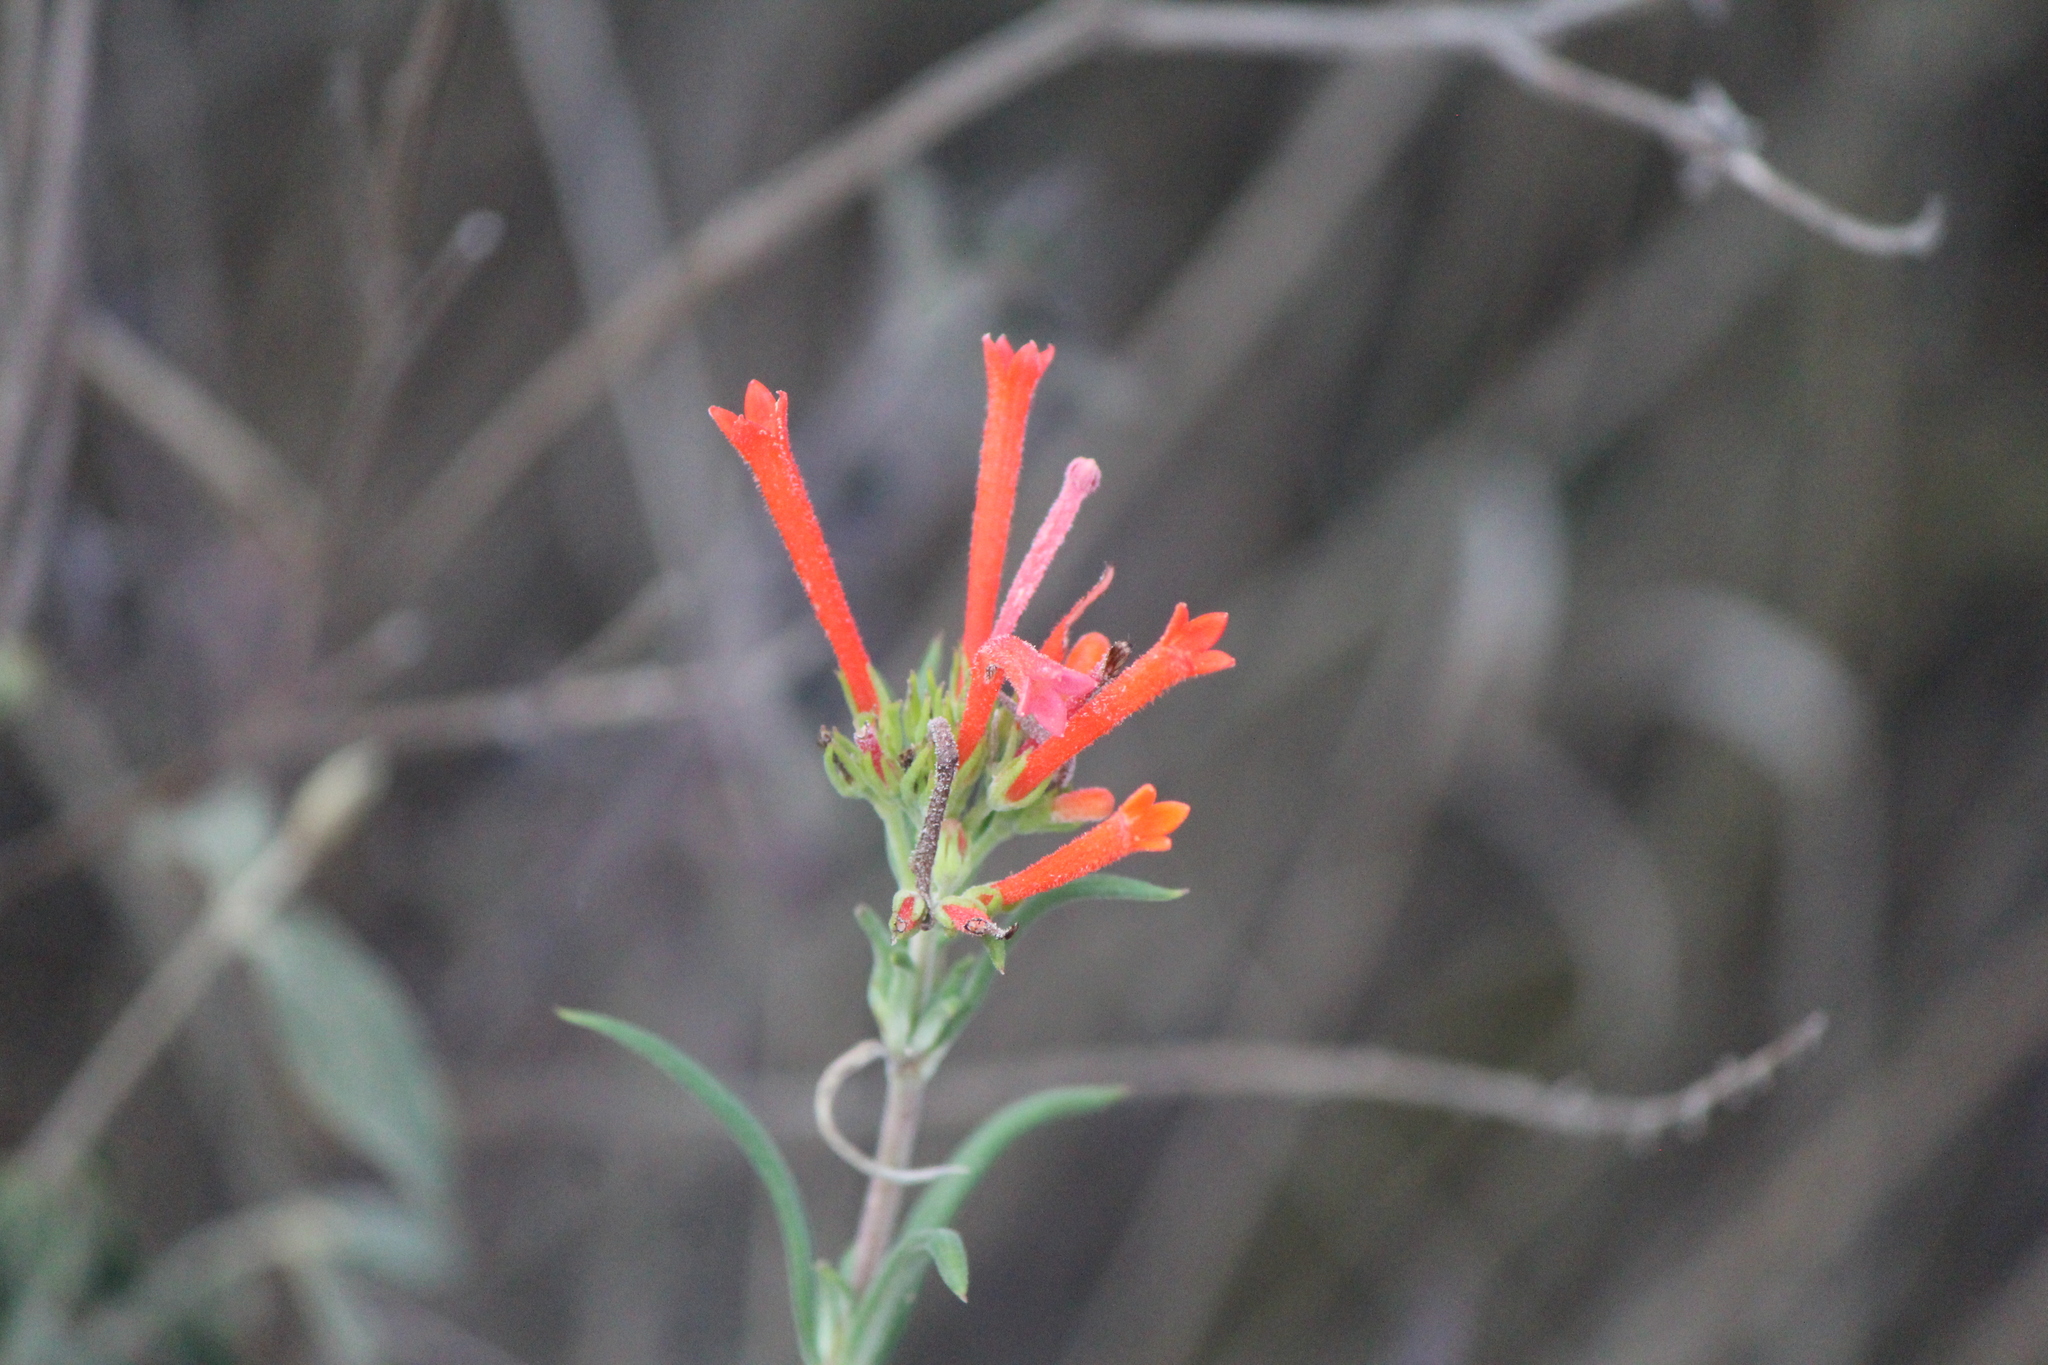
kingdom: Plantae
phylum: Tracheophyta
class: Magnoliopsida
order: Gentianales
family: Rubiaceae
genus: Bouvardia
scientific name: Bouvardia ternifolia
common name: Scarlet bouvardia
